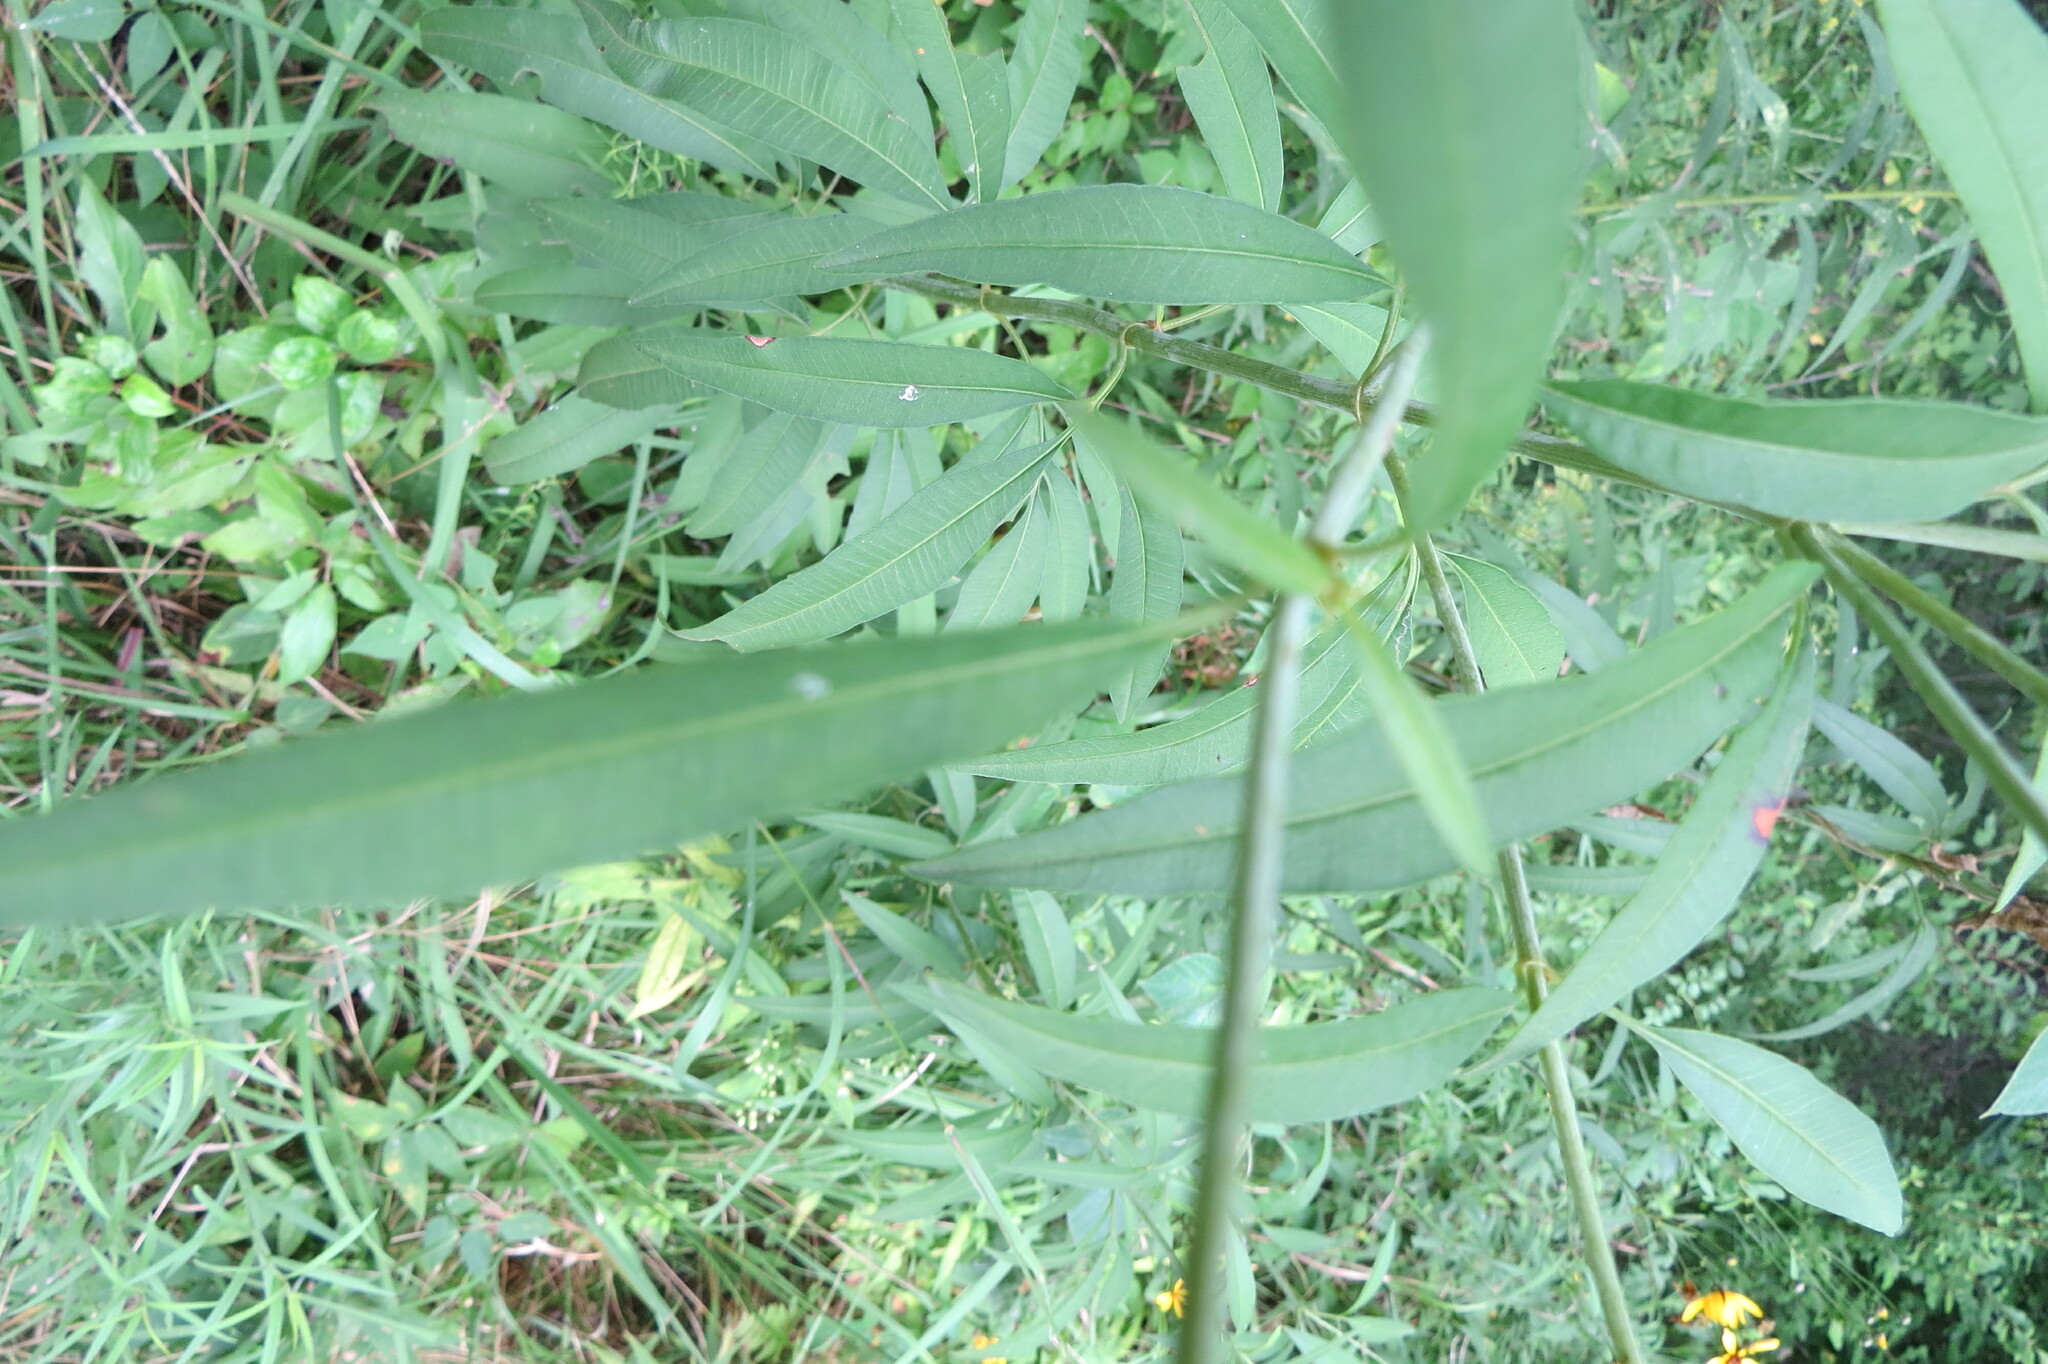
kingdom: Plantae
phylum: Tracheophyta
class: Magnoliopsida
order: Asterales
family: Asteraceae
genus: Coreopsis
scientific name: Coreopsis tripteris
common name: Tall coreopsis
